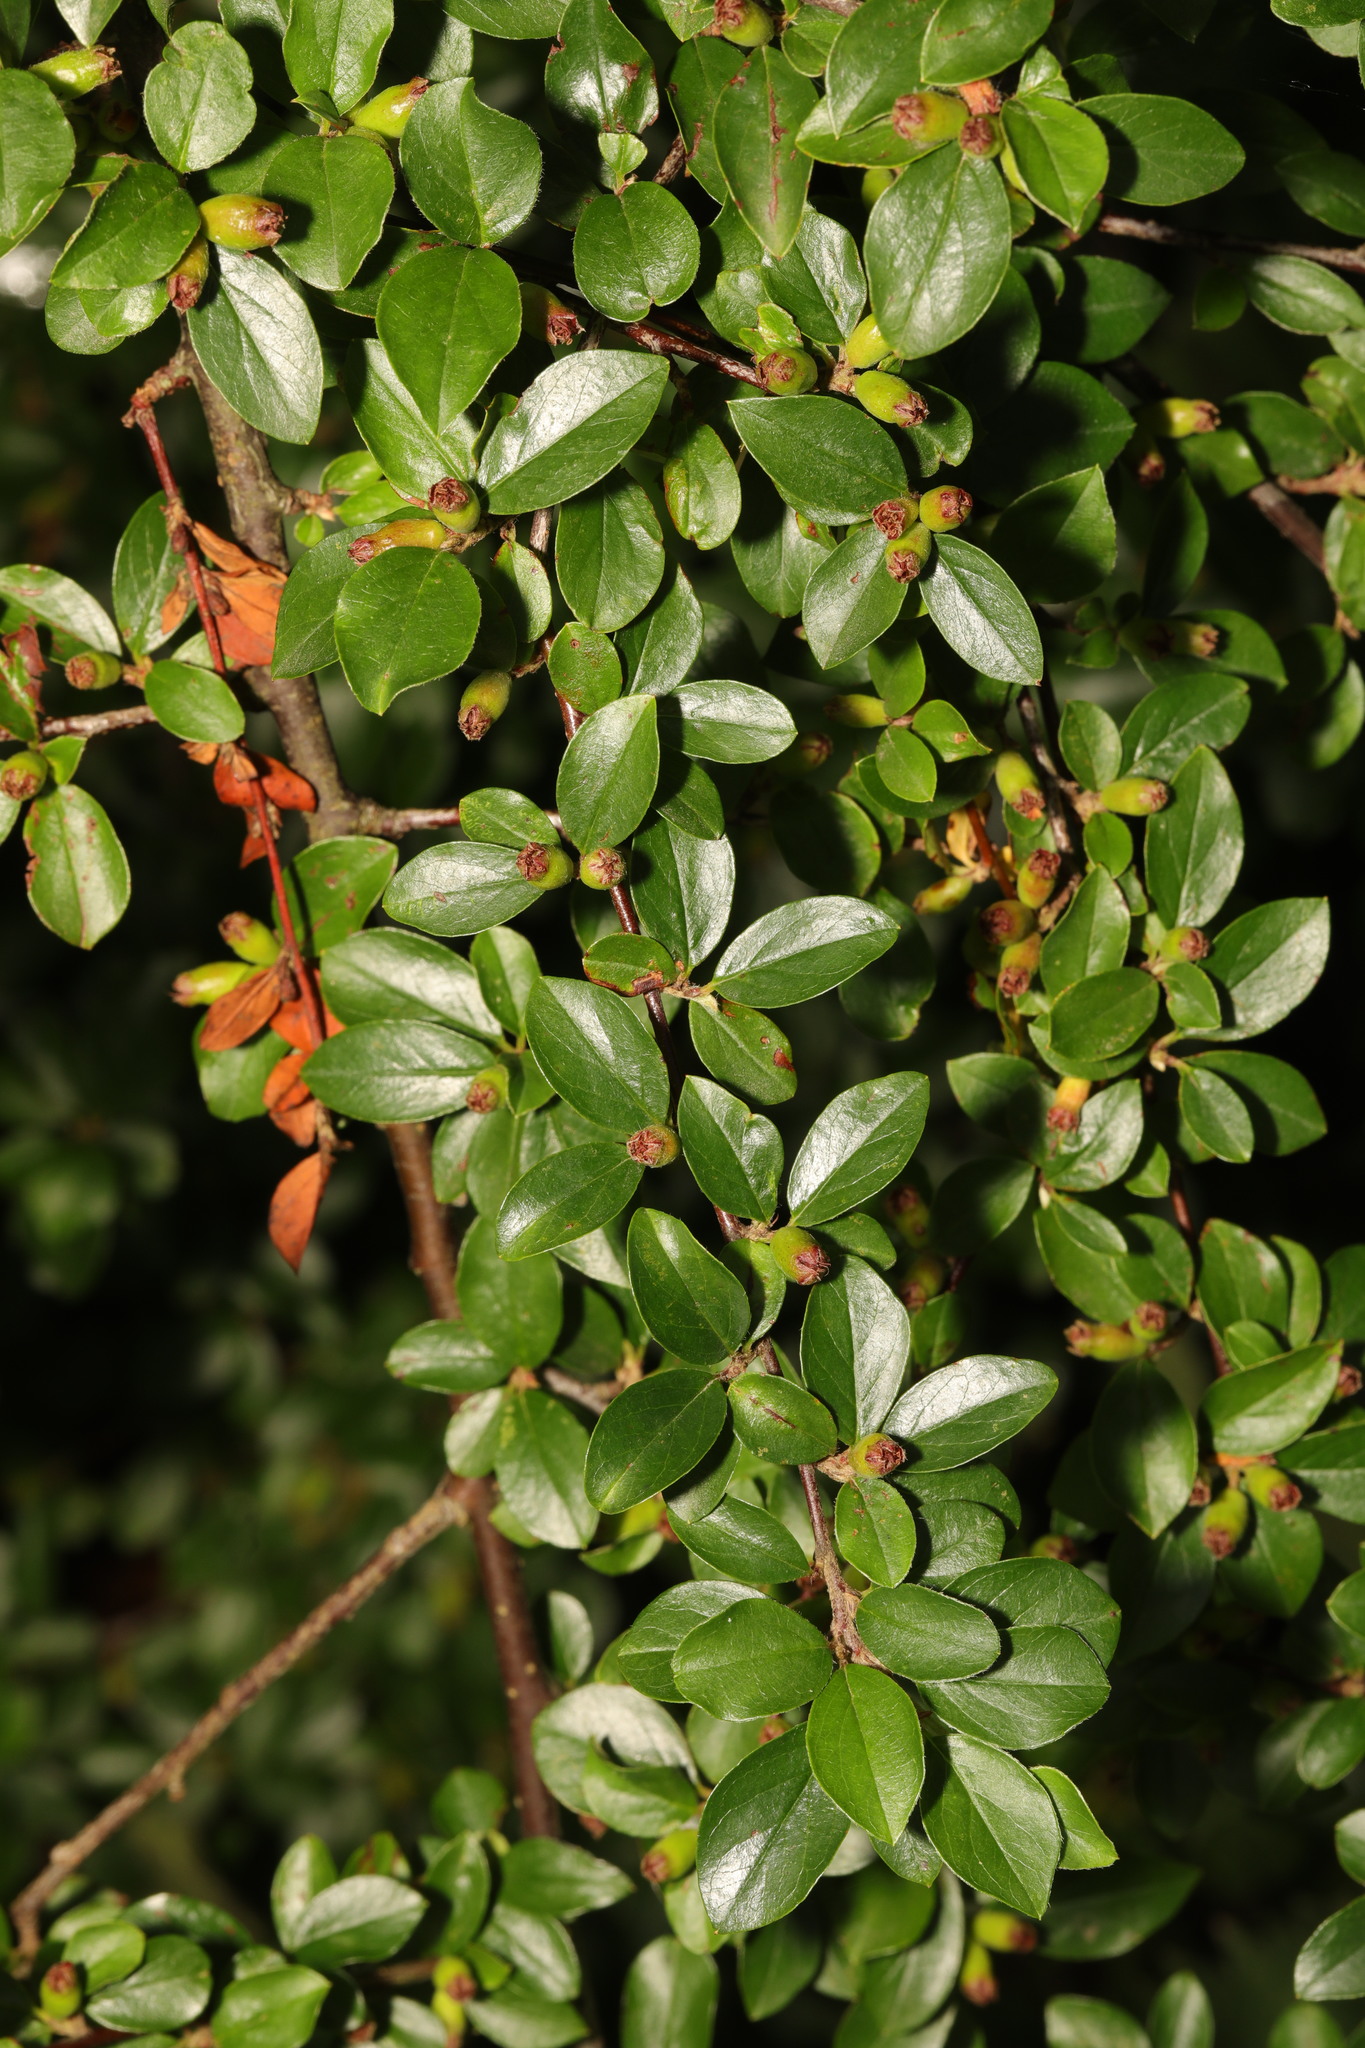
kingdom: Plantae
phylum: Tracheophyta
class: Magnoliopsida
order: Rosales
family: Rosaceae
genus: Cotoneaster
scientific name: Cotoneaster divaricatus
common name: Spreading cotoneaster
